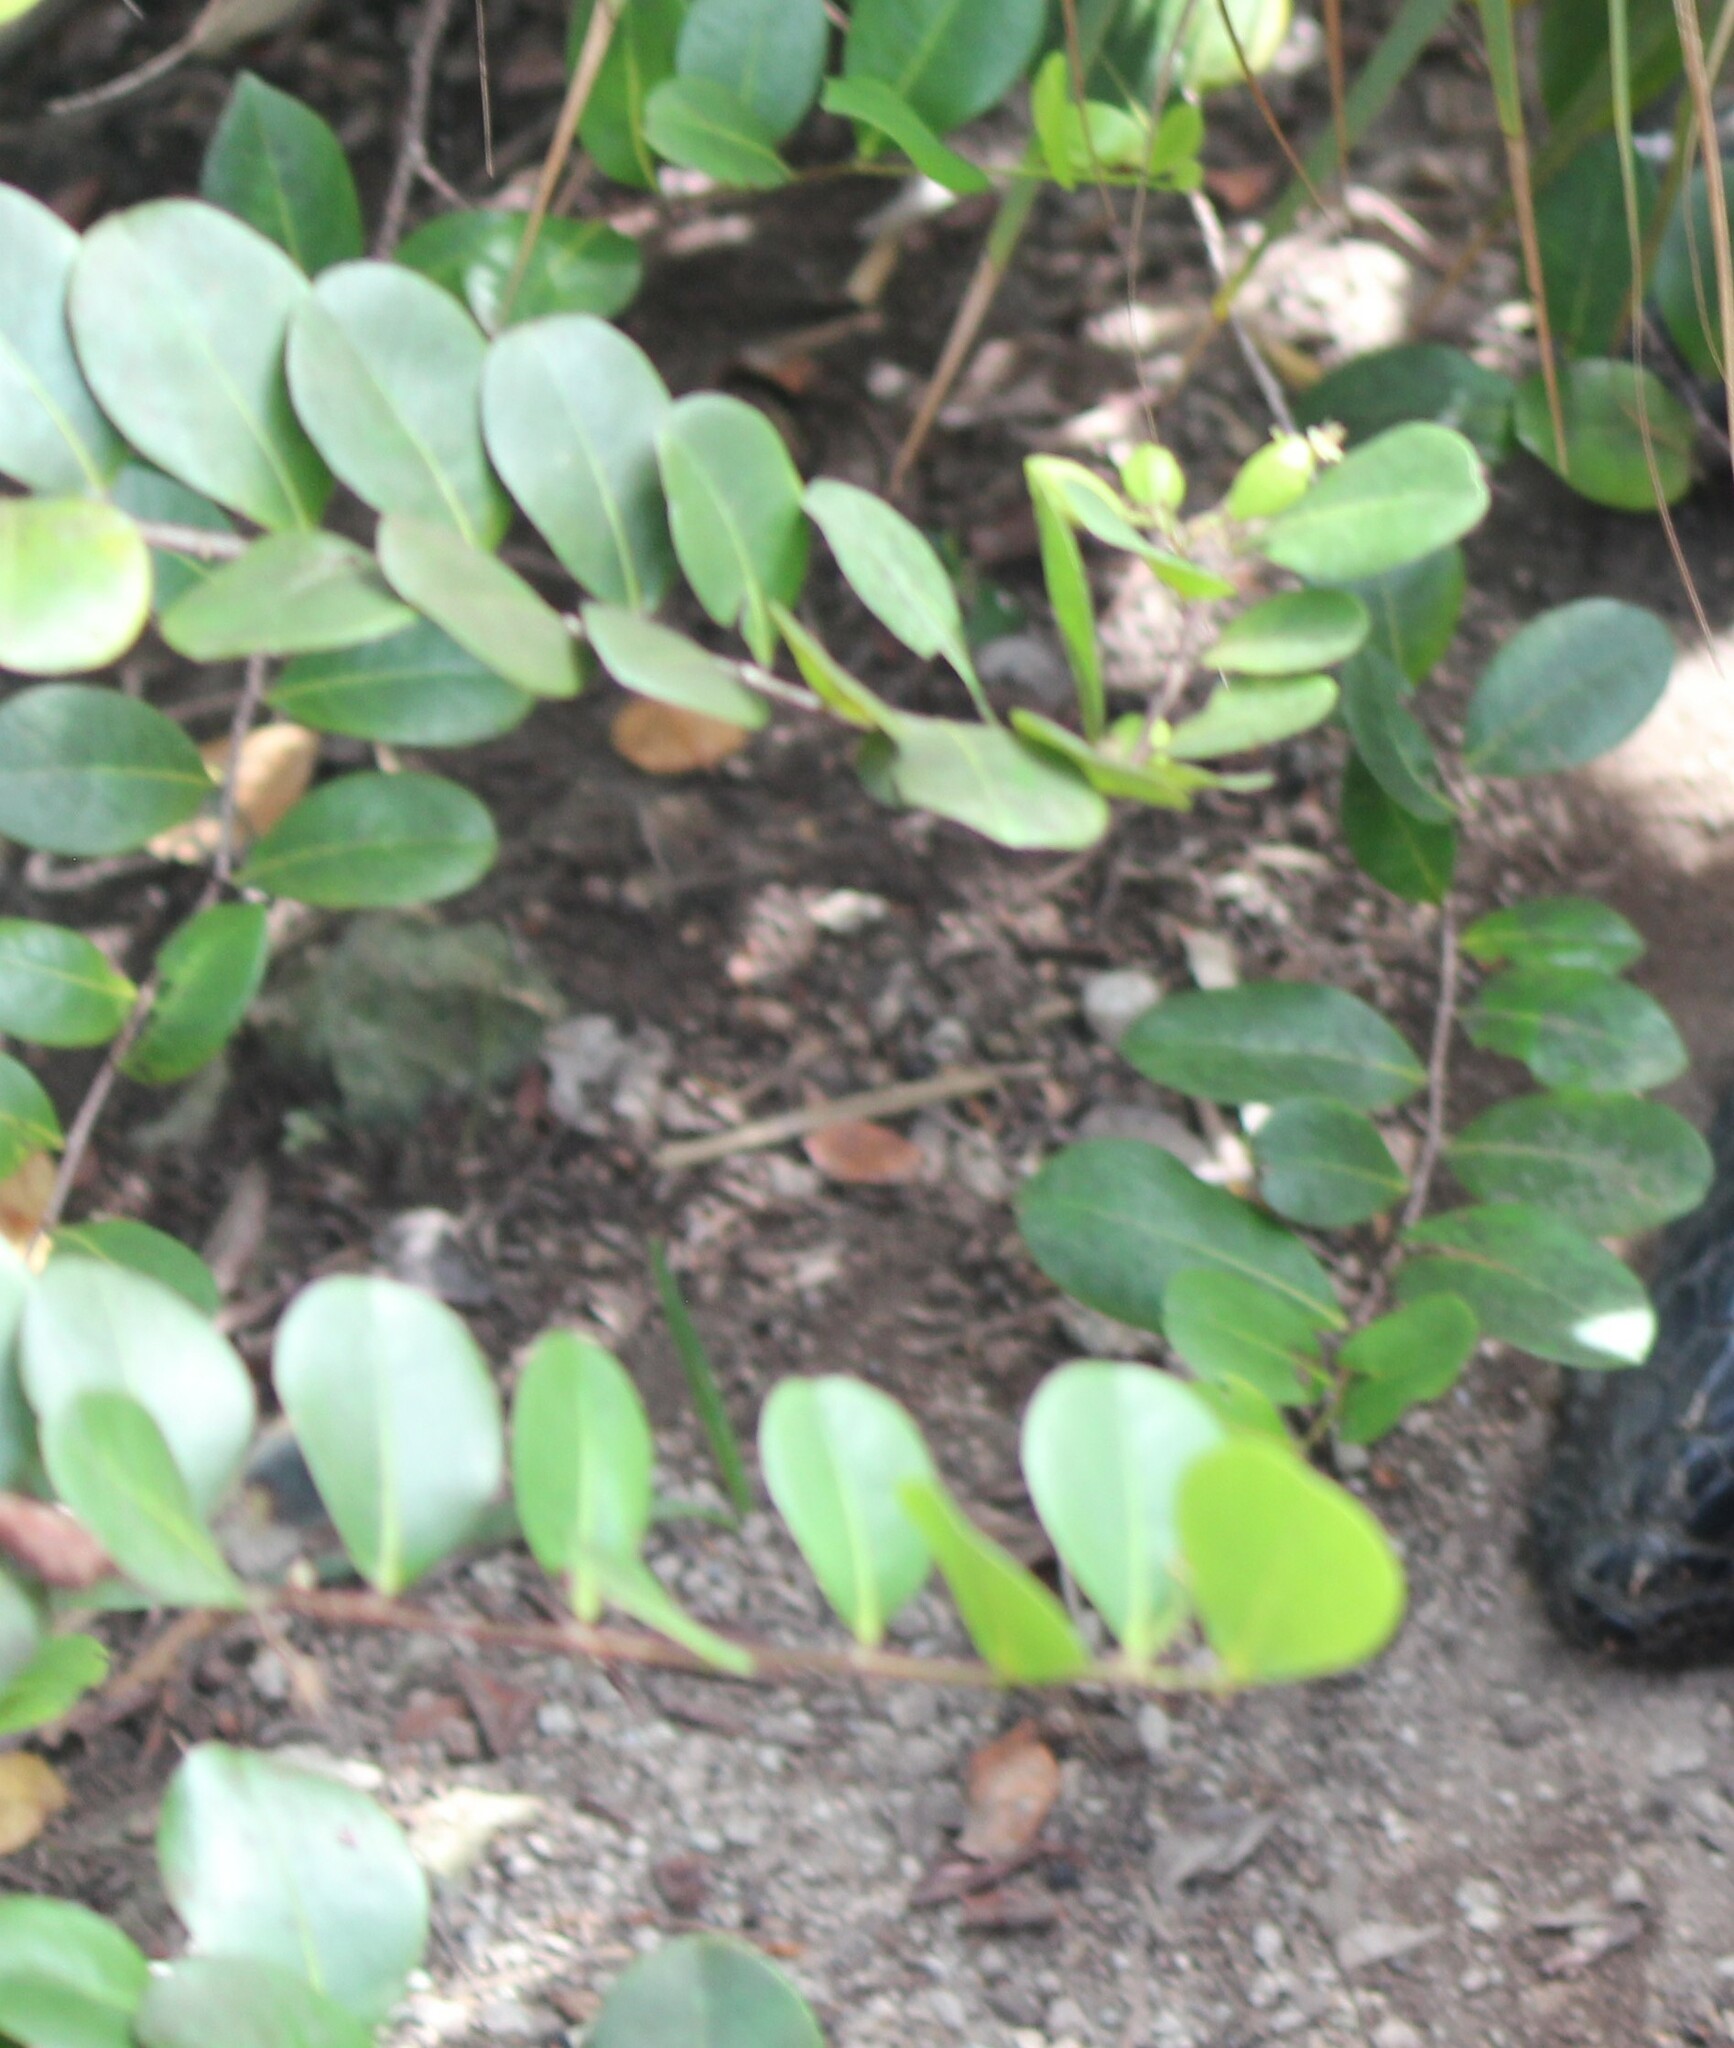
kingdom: Plantae
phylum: Tracheophyta
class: Magnoliopsida
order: Malpighiales
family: Chrysobalanaceae
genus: Chrysobalanus
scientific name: Chrysobalanus icaco
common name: Coco plum
